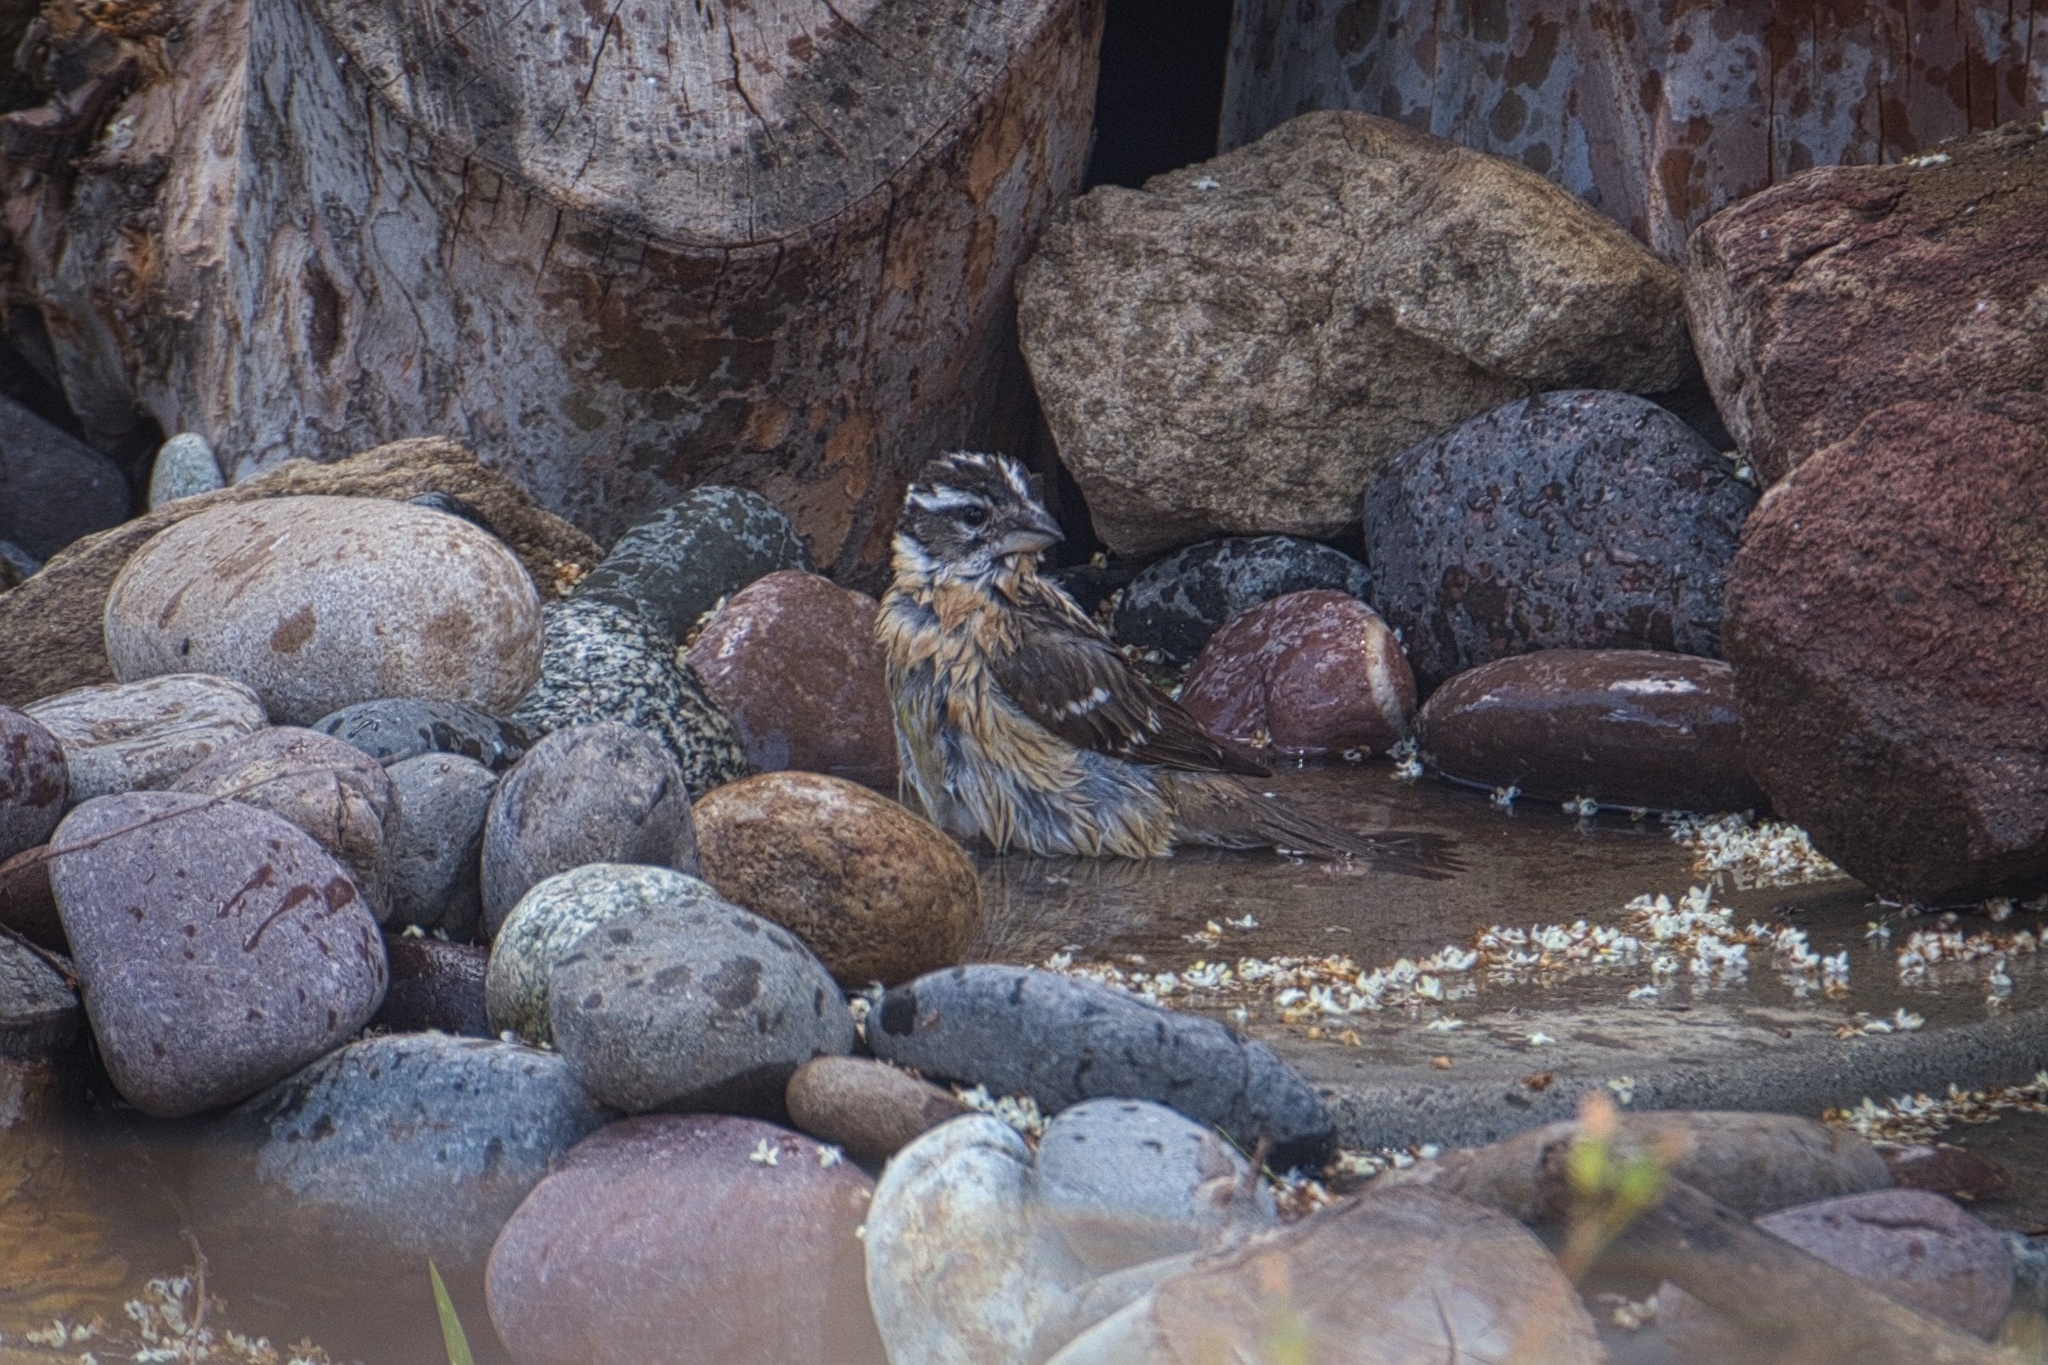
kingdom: Animalia
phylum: Chordata
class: Aves
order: Passeriformes
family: Cardinalidae
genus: Pheucticus
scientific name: Pheucticus melanocephalus
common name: Black-headed grosbeak
